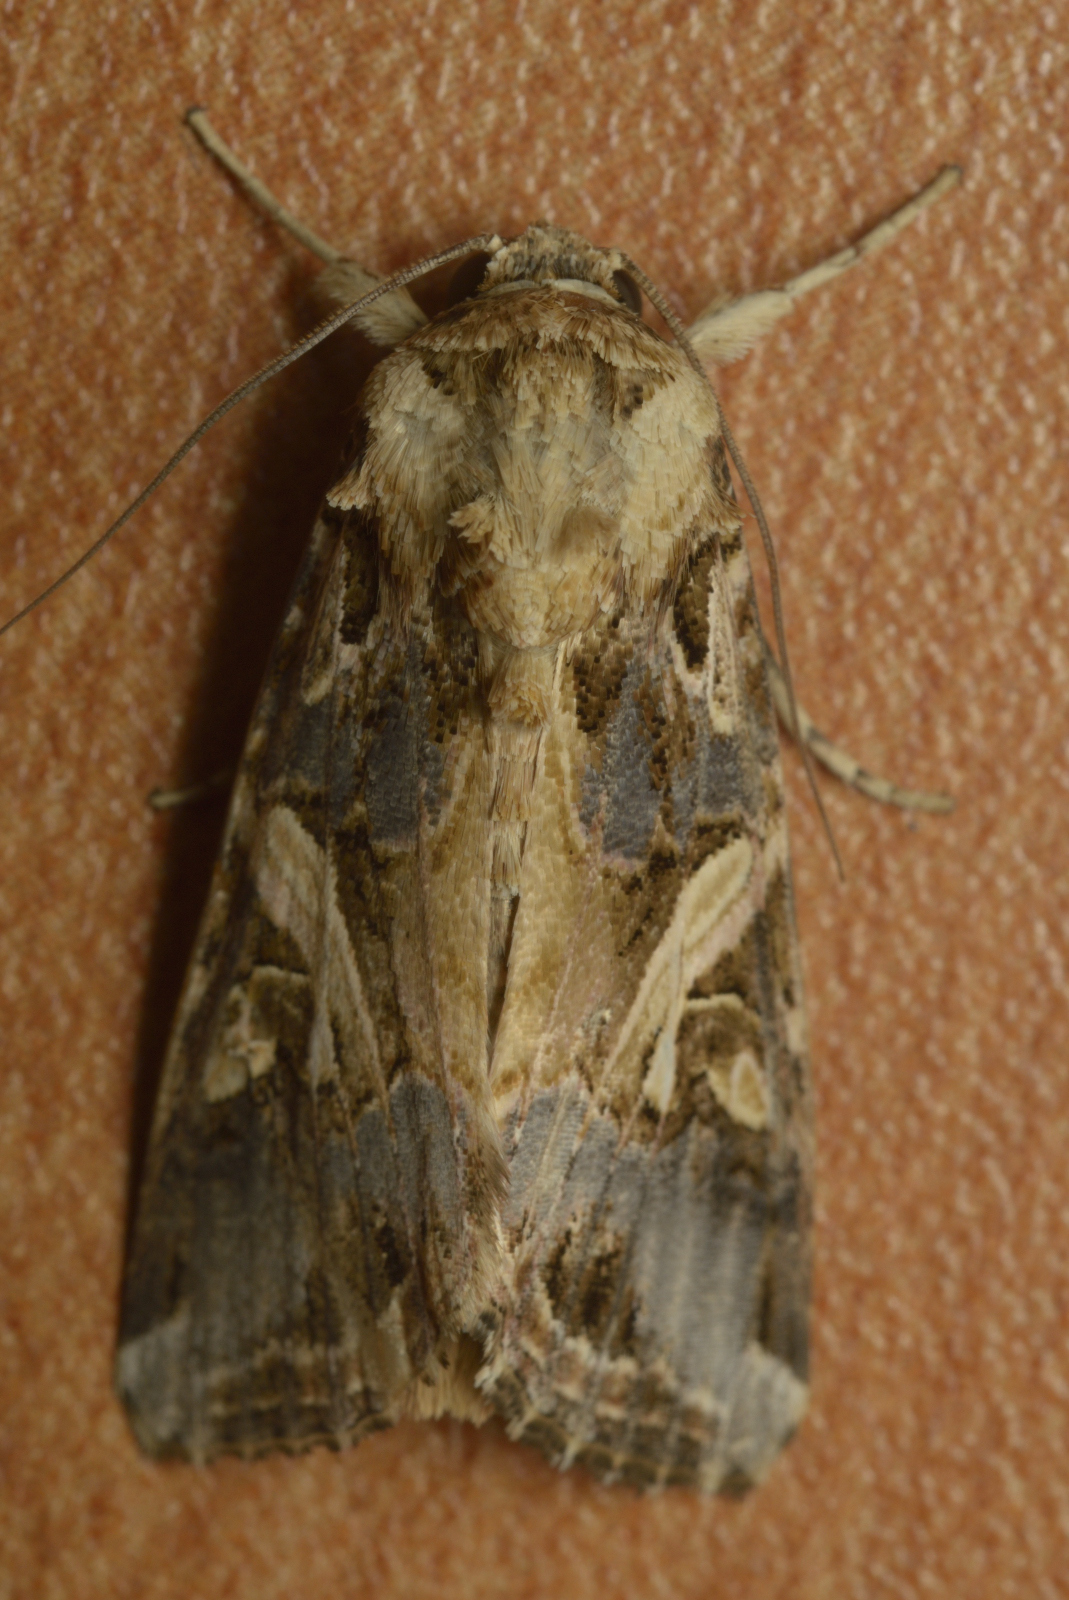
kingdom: Animalia
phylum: Arthropoda
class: Insecta
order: Lepidoptera
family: Noctuidae
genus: Spodoptera
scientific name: Spodoptera litura
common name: Asian cotton leafworm
